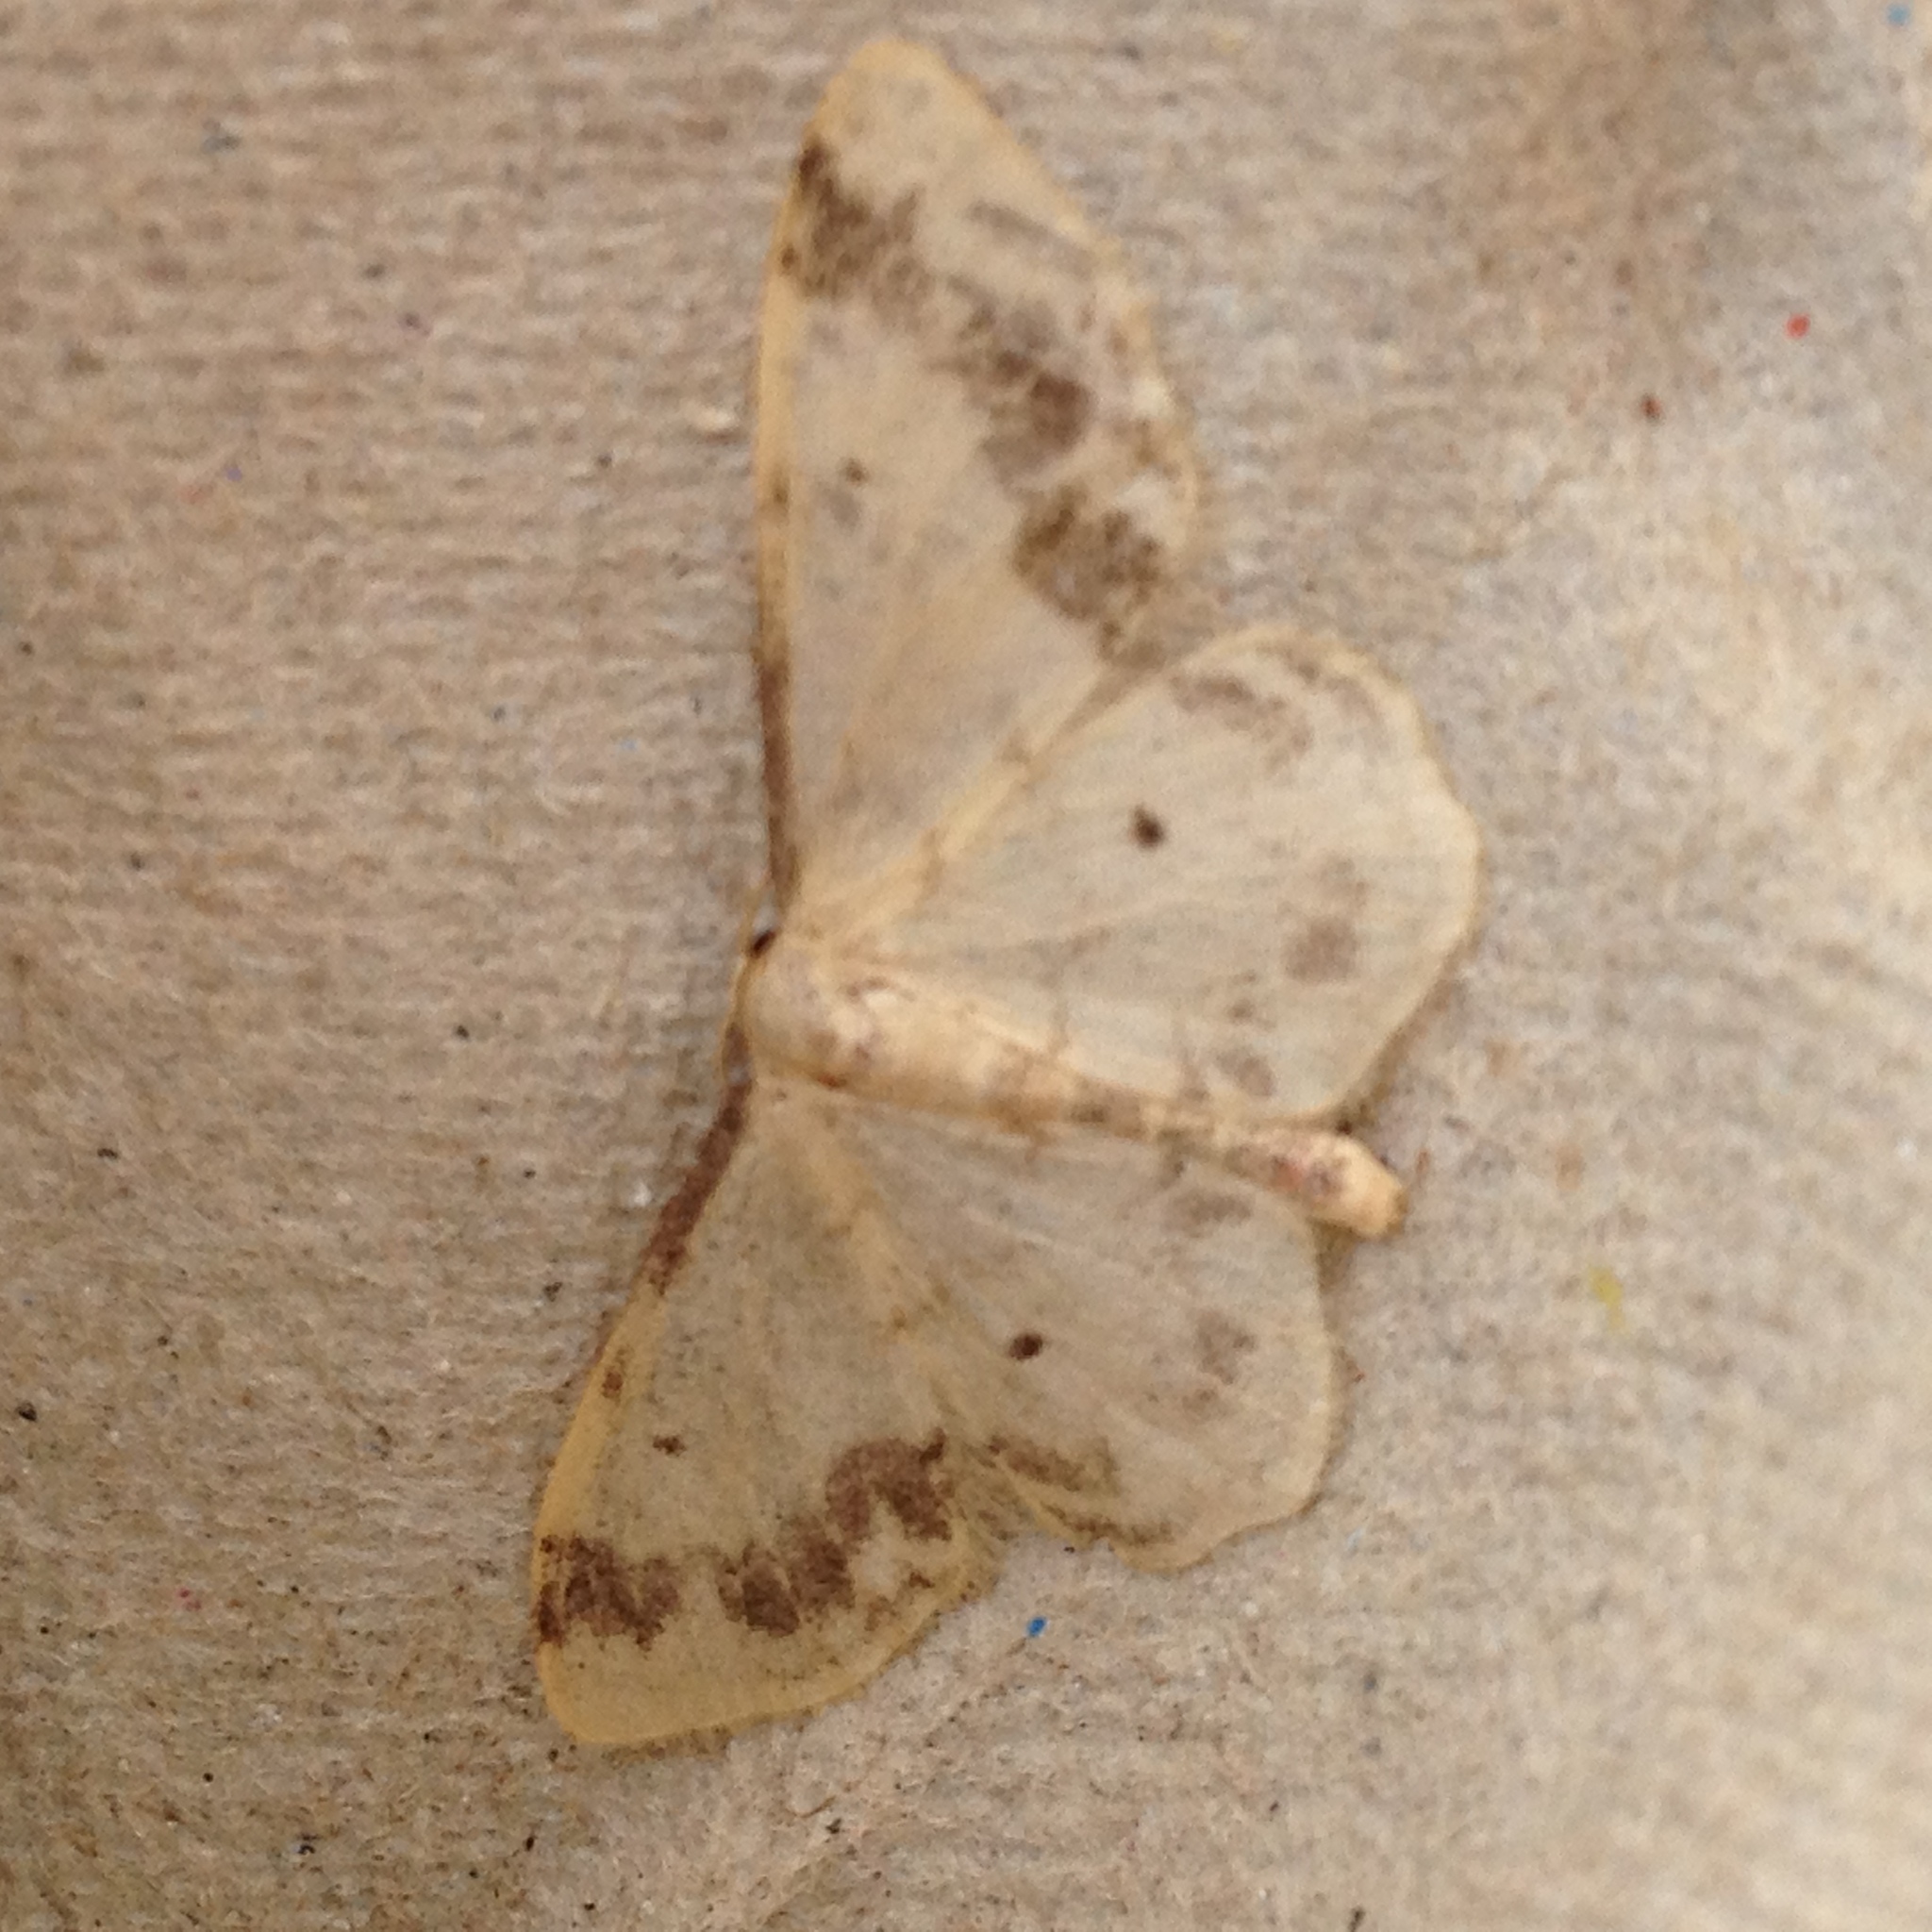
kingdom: Animalia
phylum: Arthropoda
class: Insecta
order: Lepidoptera
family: Geometridae
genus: Idaea
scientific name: Idaea trigeminata
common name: Treble brown spot
